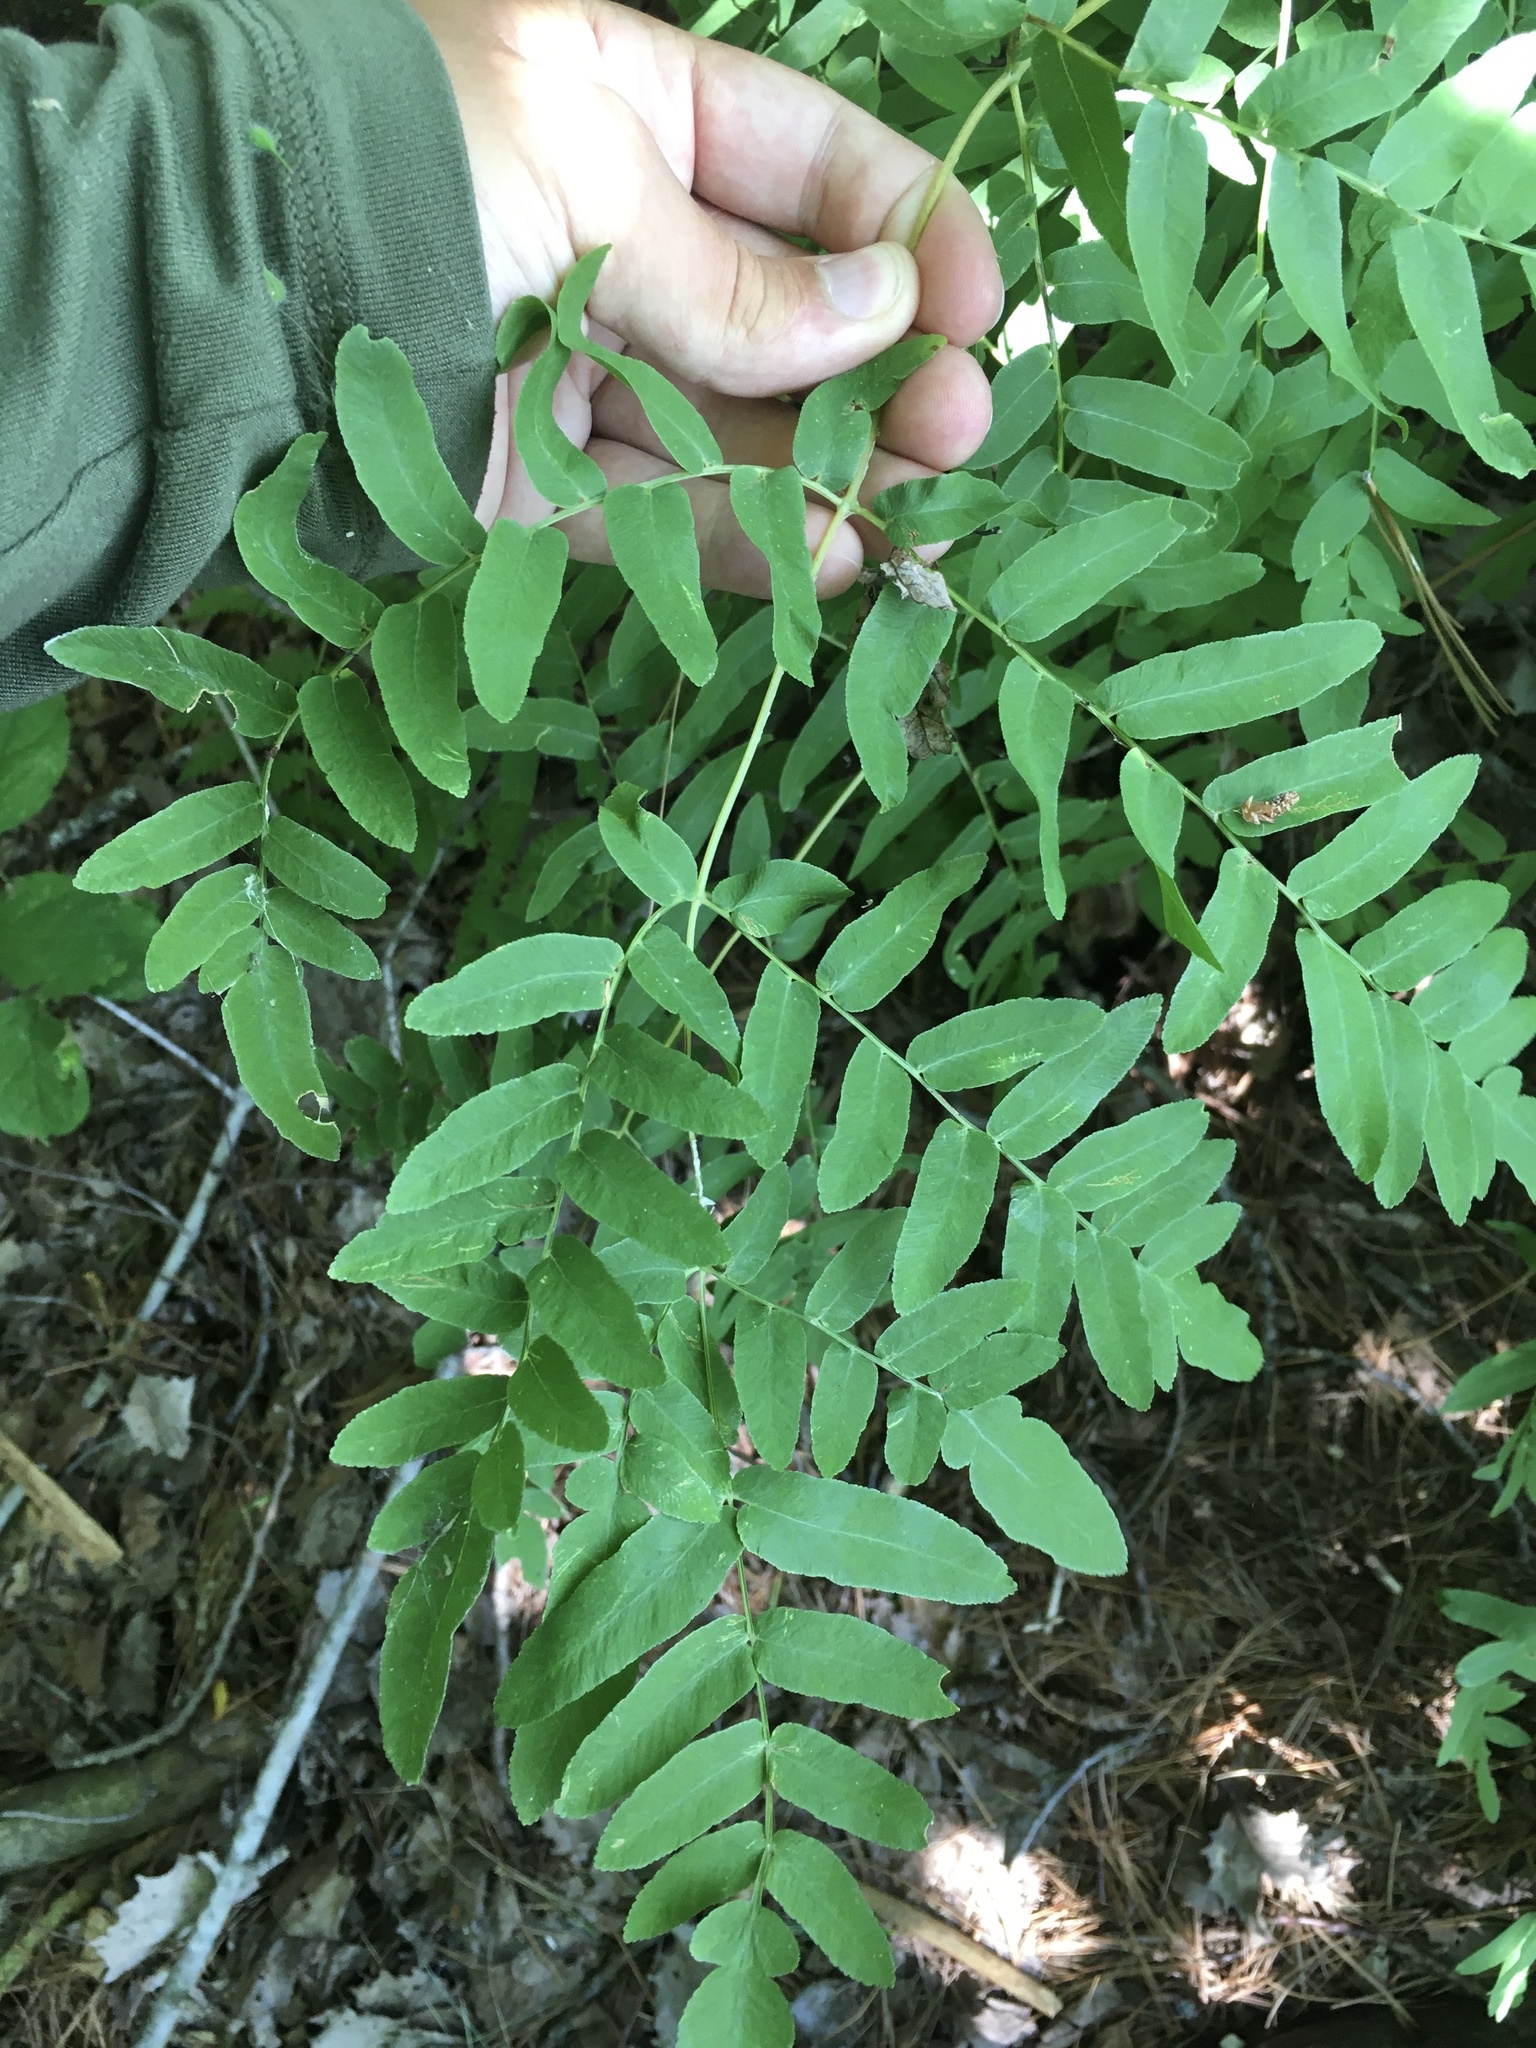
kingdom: Plantae
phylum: Tracheophyta
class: Polypodiopsida
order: Osmundales
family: Osmundaceae
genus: Osmunda
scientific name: Osmunda spectabilis
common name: American royal fern
